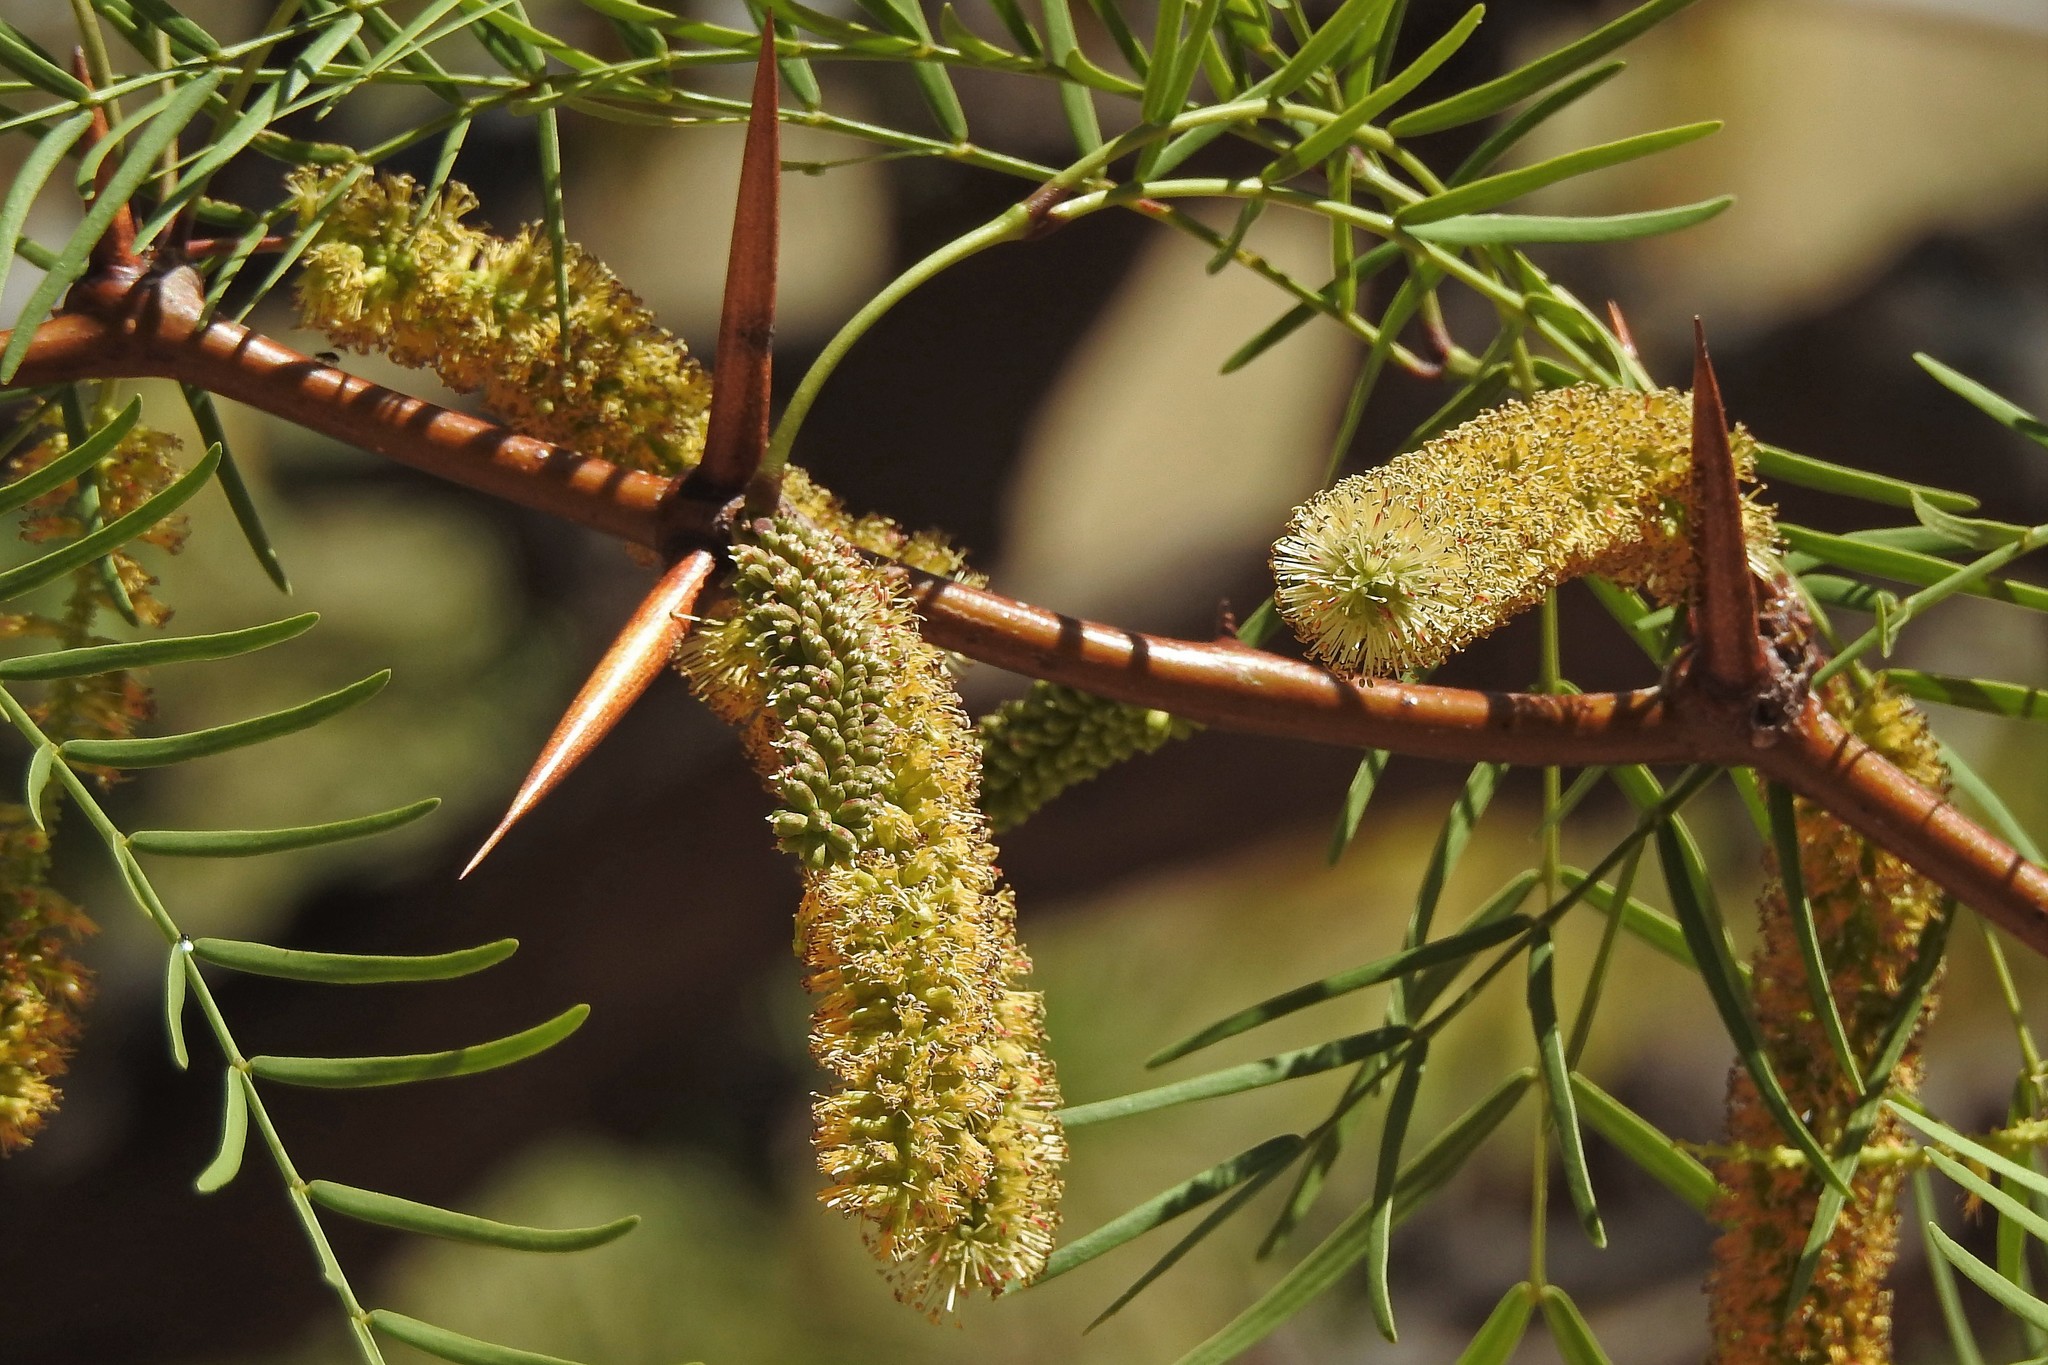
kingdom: Plantae
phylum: Tracheophyta
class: Magnoliopsida
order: Fabales
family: Fabaceae
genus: Prosopis
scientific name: Prosopis chilensis
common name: Chilean algarrobo
